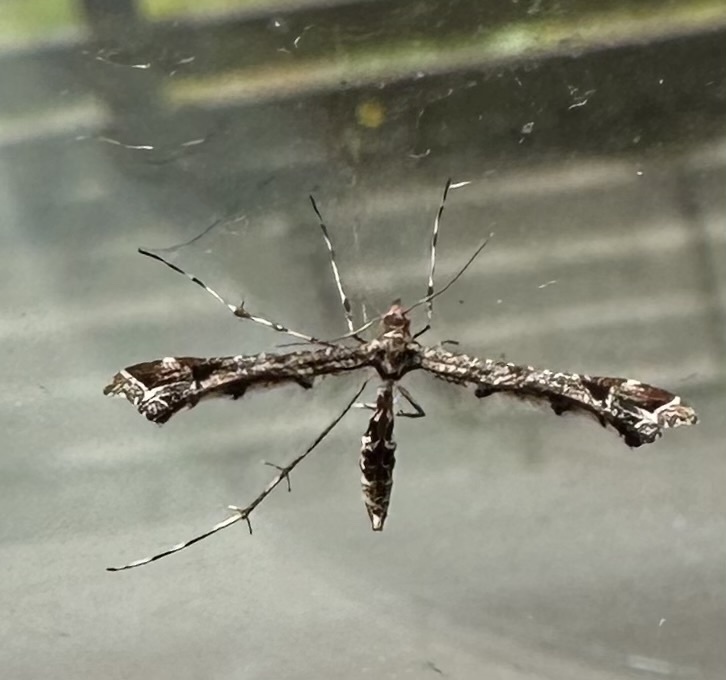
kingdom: Animalia
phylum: Arthropoda
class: Insecta
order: Lepidoptera
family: Pterophoridae
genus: Amblyptilia
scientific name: Amblyptilia acanthadactyla
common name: Beautiful plume
